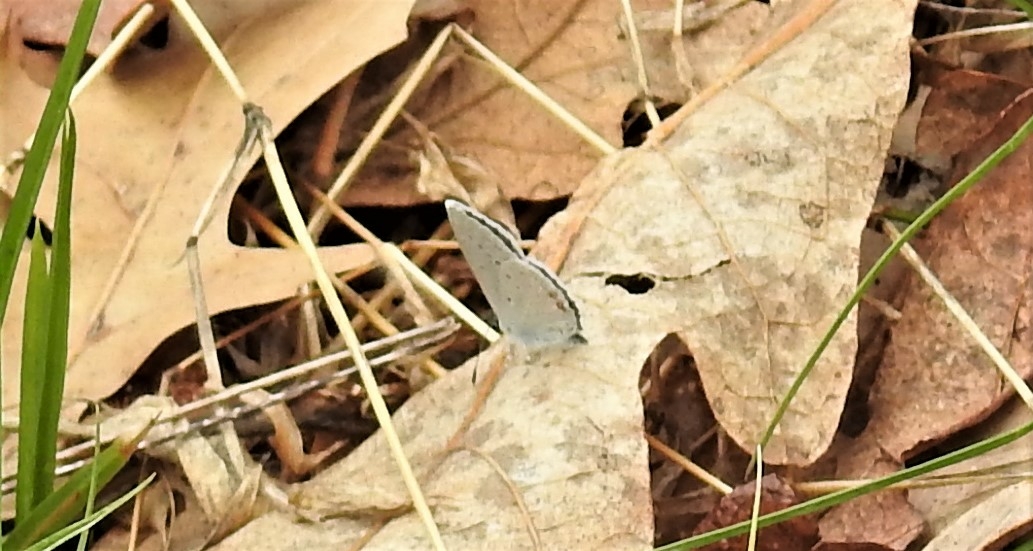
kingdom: Animalia
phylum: Arthropoda
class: Insecta
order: Lepidoptera
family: Lycaenidae
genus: Elkalyce
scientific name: Elkalyce comyntas
